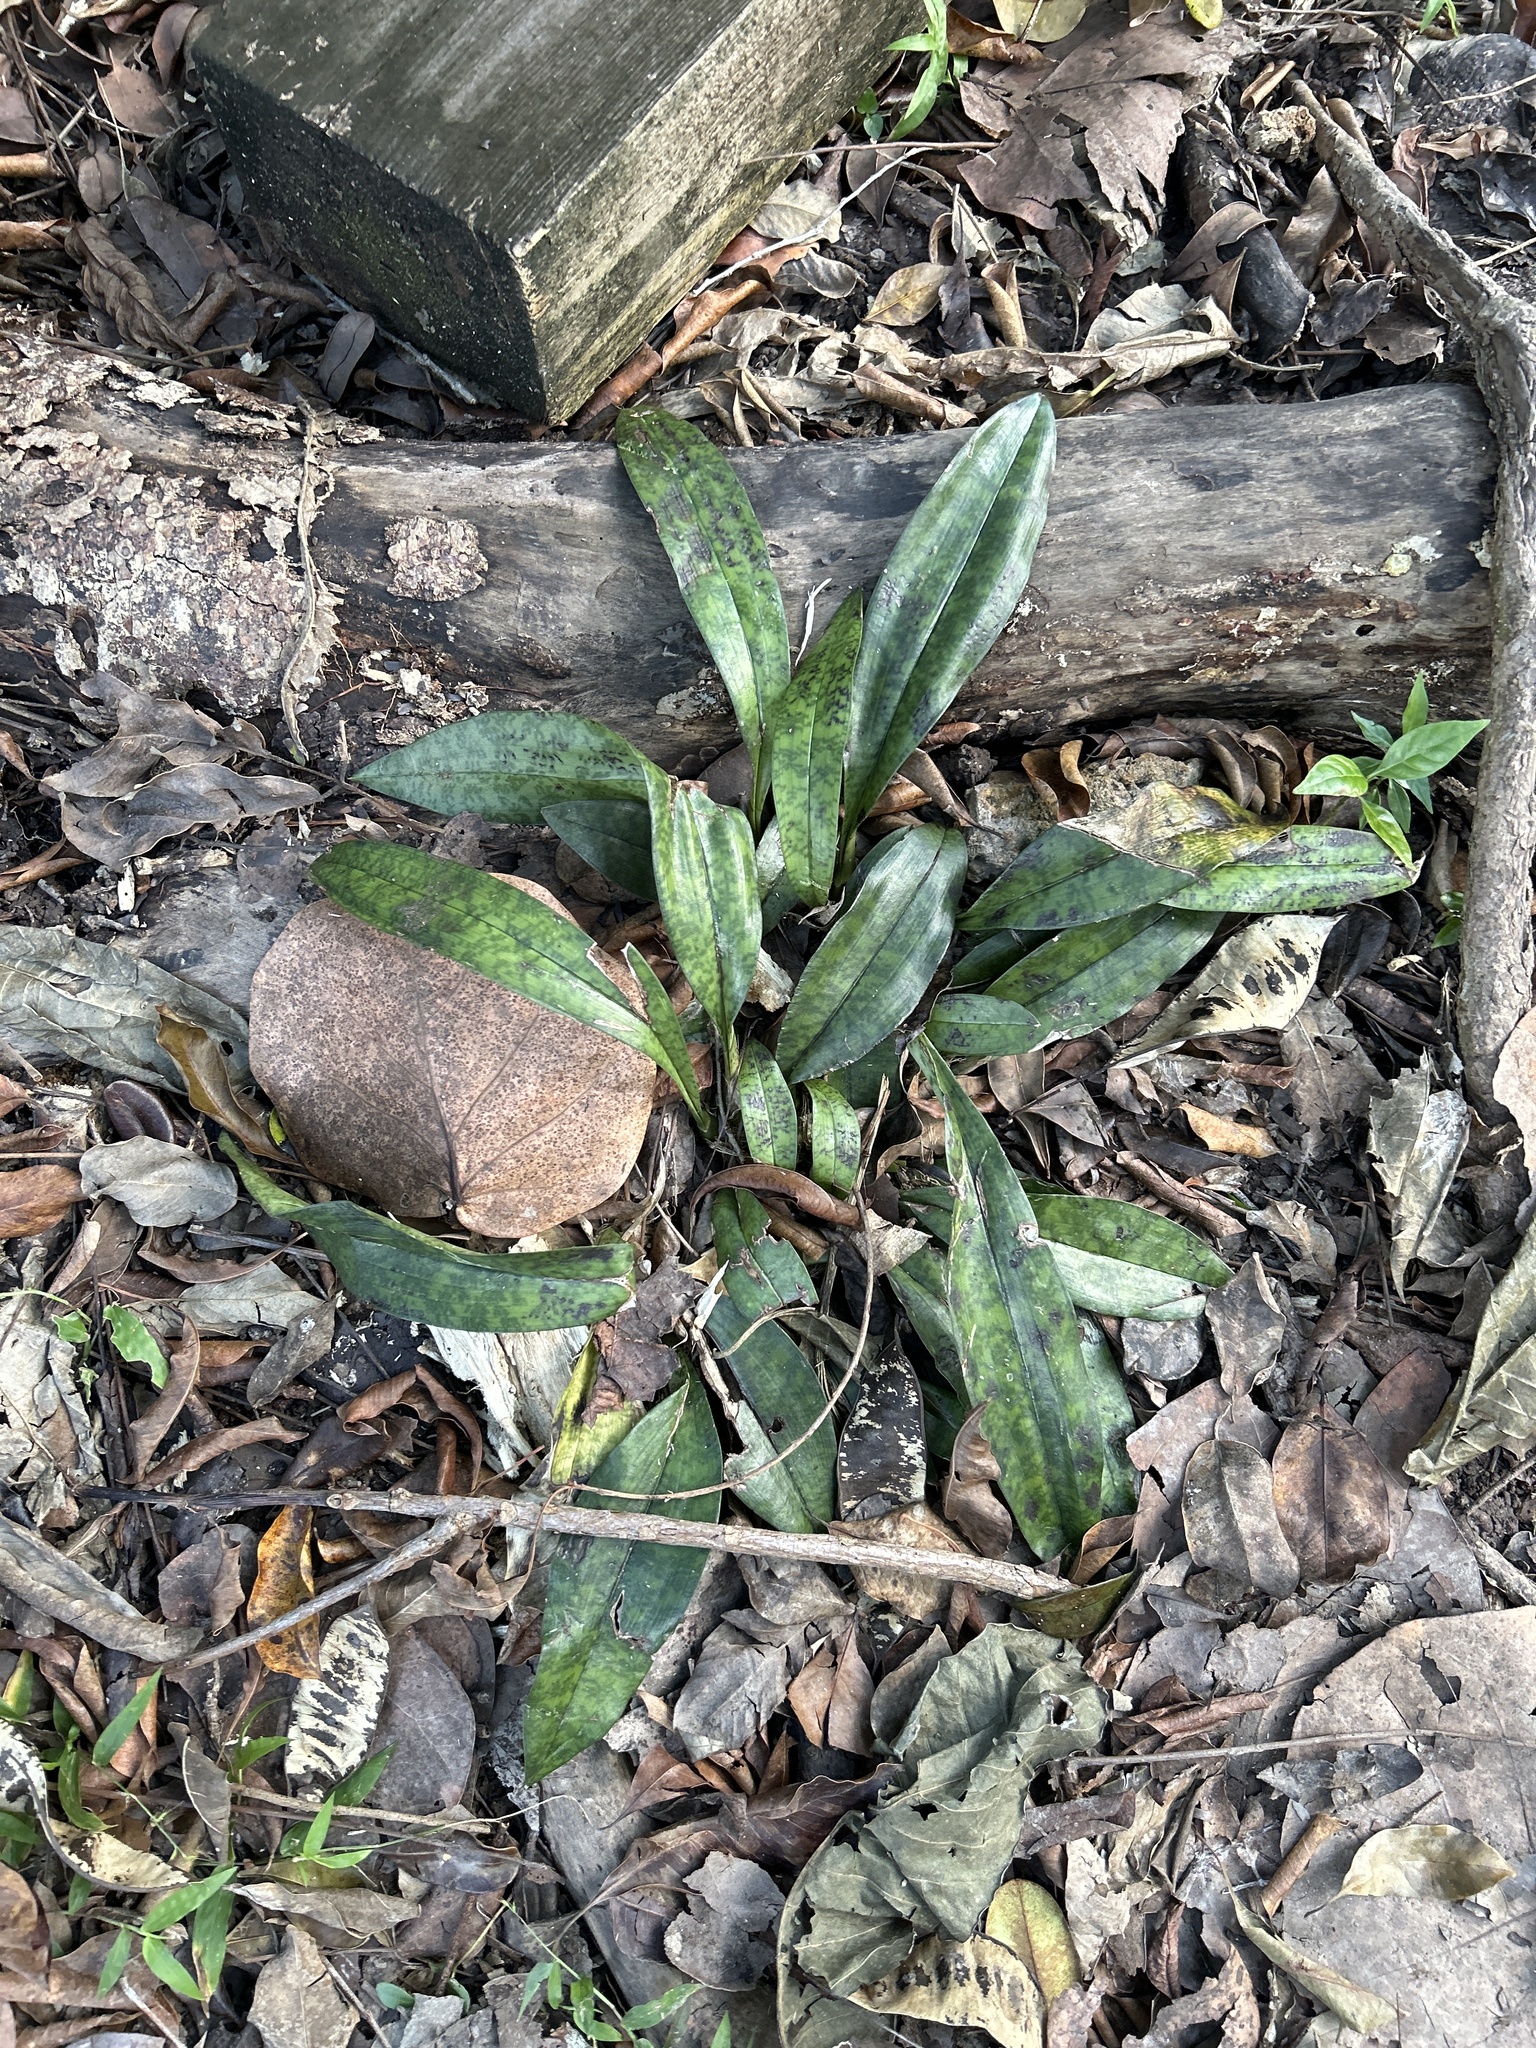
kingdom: Plantae
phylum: Tracheophyta
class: Liliopsida
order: Asparagales
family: Orchidaceae
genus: Eulophia
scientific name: Eulophia maculata
